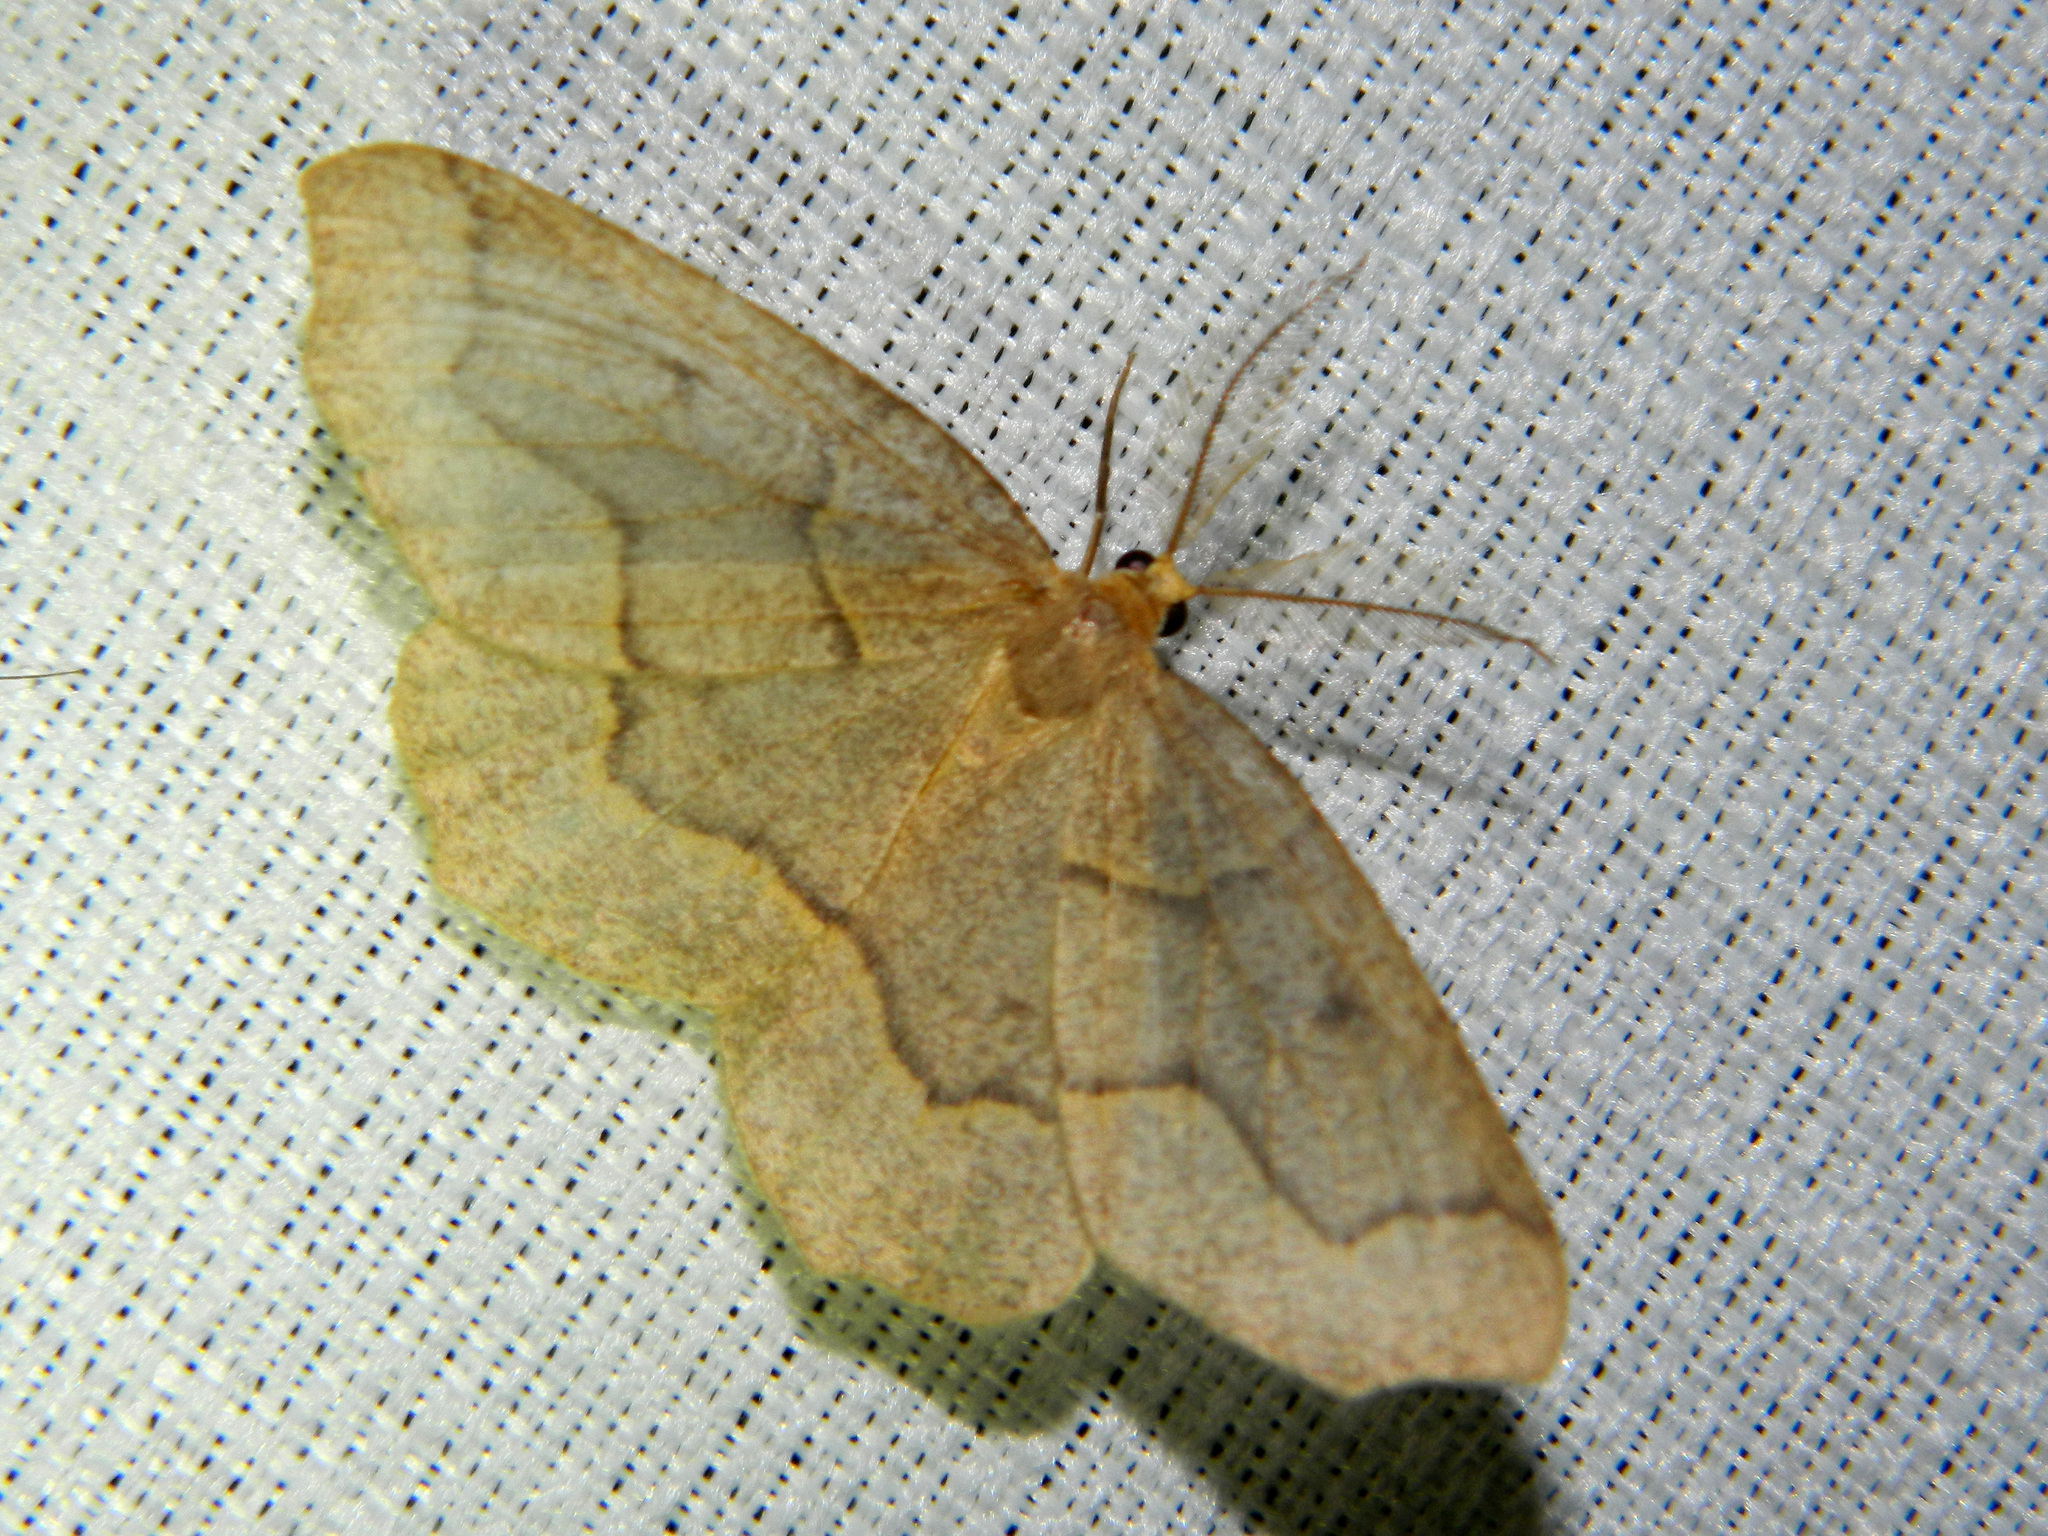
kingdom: Animalia
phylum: Arthropoda
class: Insecta
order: Lepidoptera
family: Geometridae
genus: Lambdina
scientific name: Lambdina fiscellaria
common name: Hemlock looper
